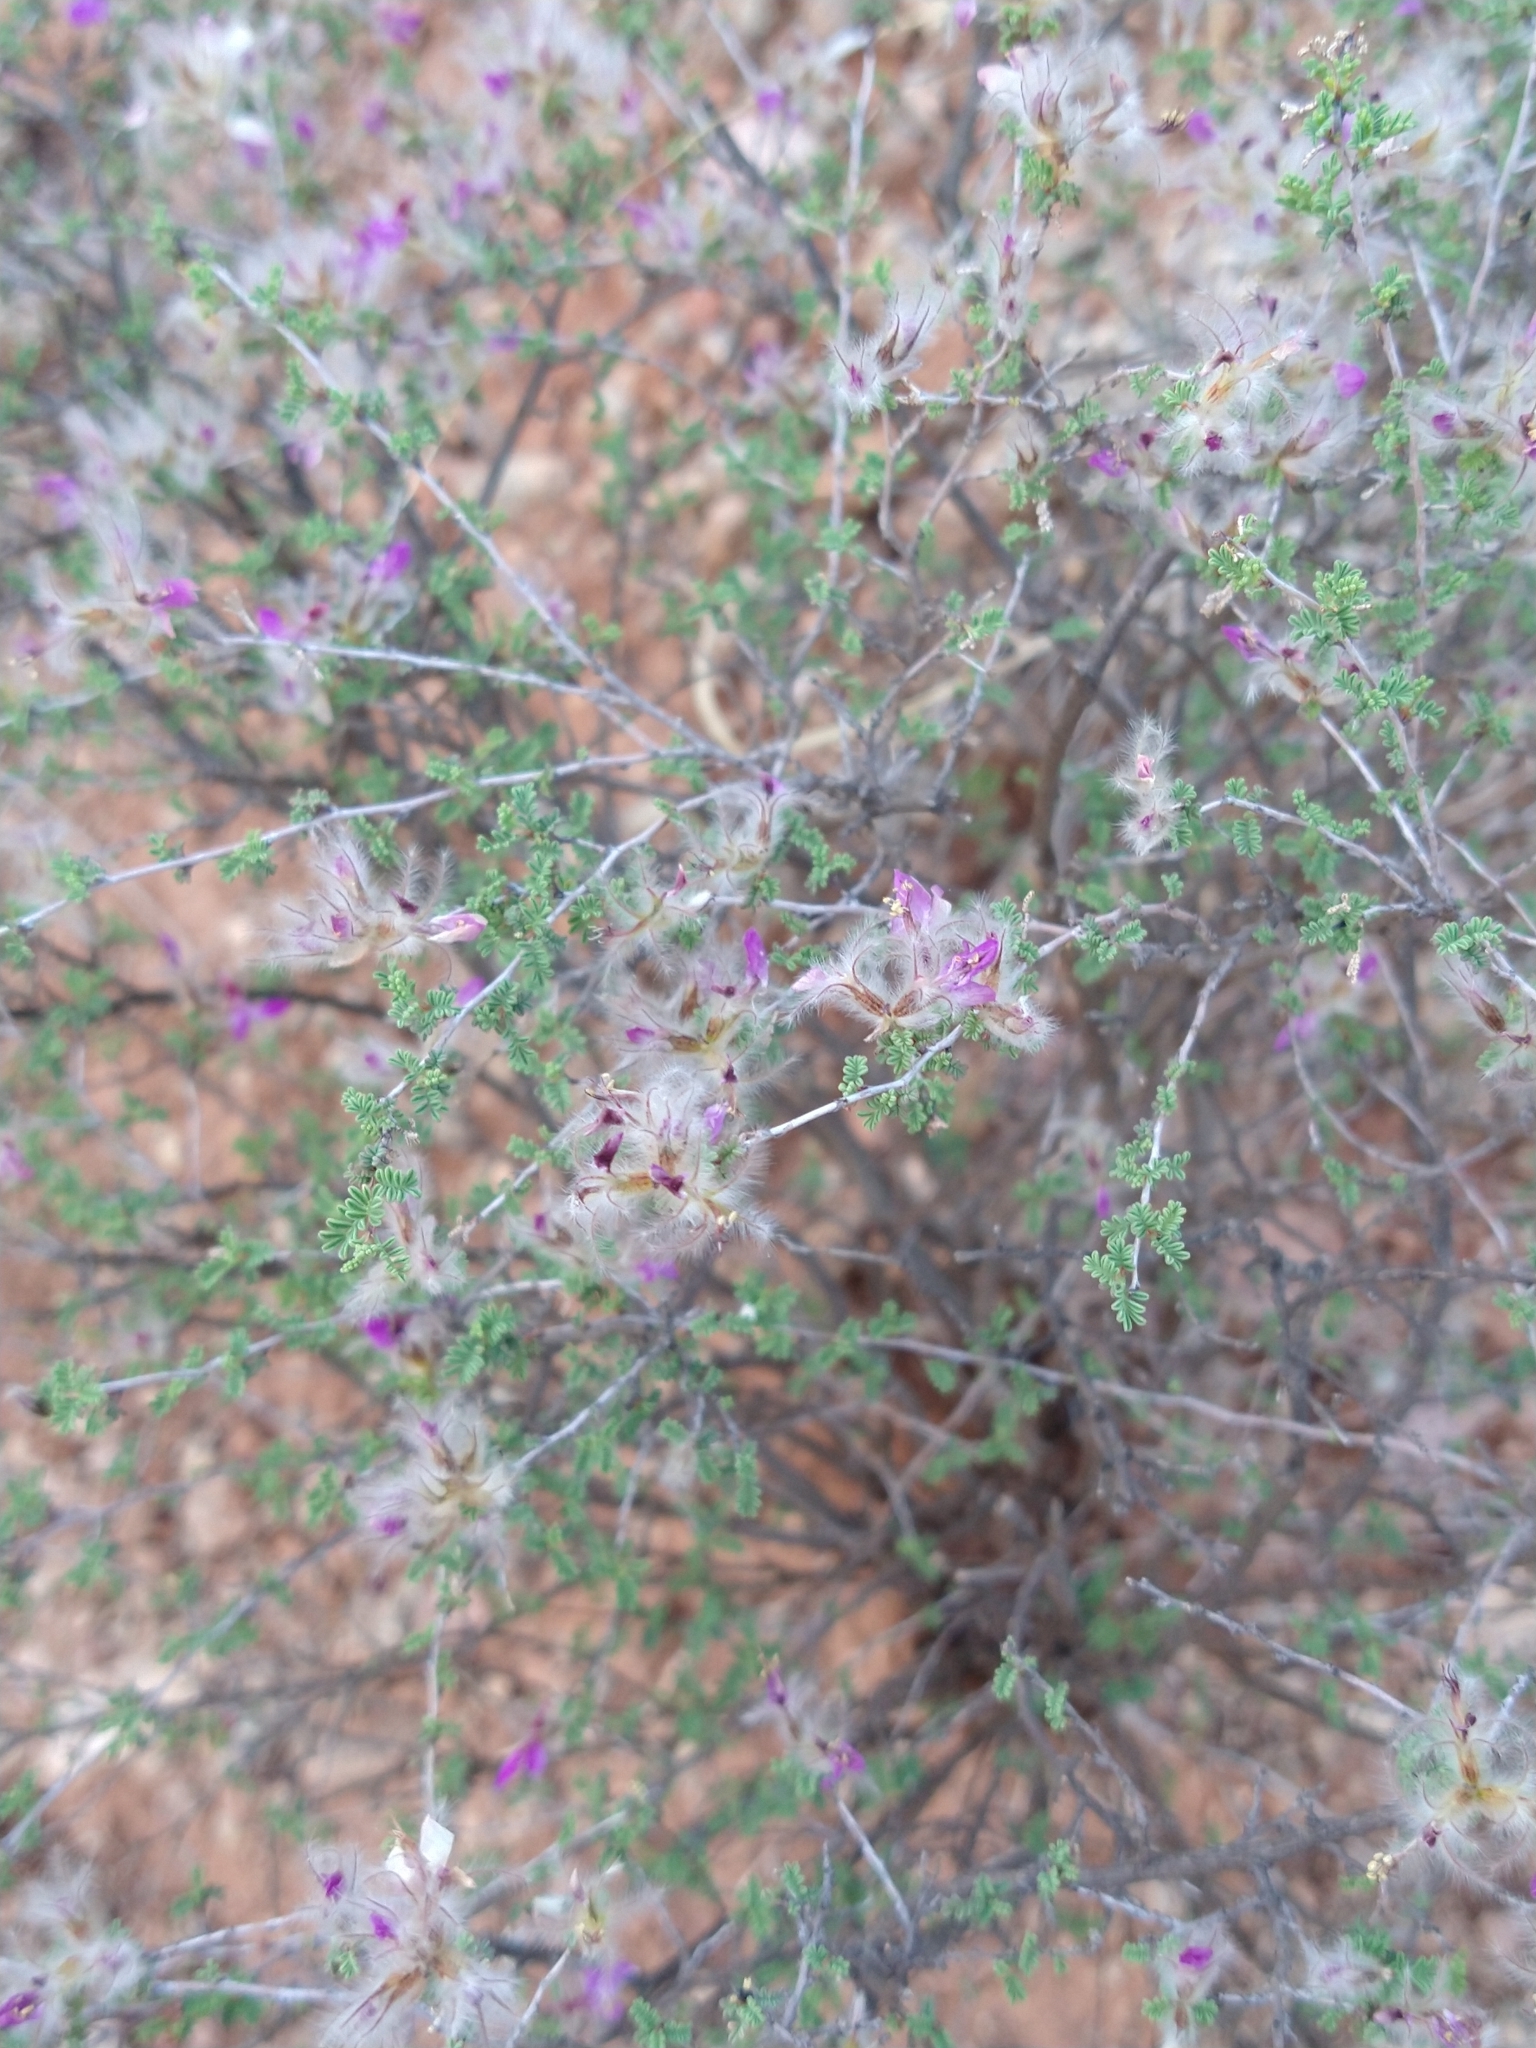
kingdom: Plantae
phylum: Tracheophyta
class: Magnoliopsida
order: Fabales
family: Fabaceae
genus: Dalea
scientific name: Dalea formosa
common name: Feather-plume dalea
